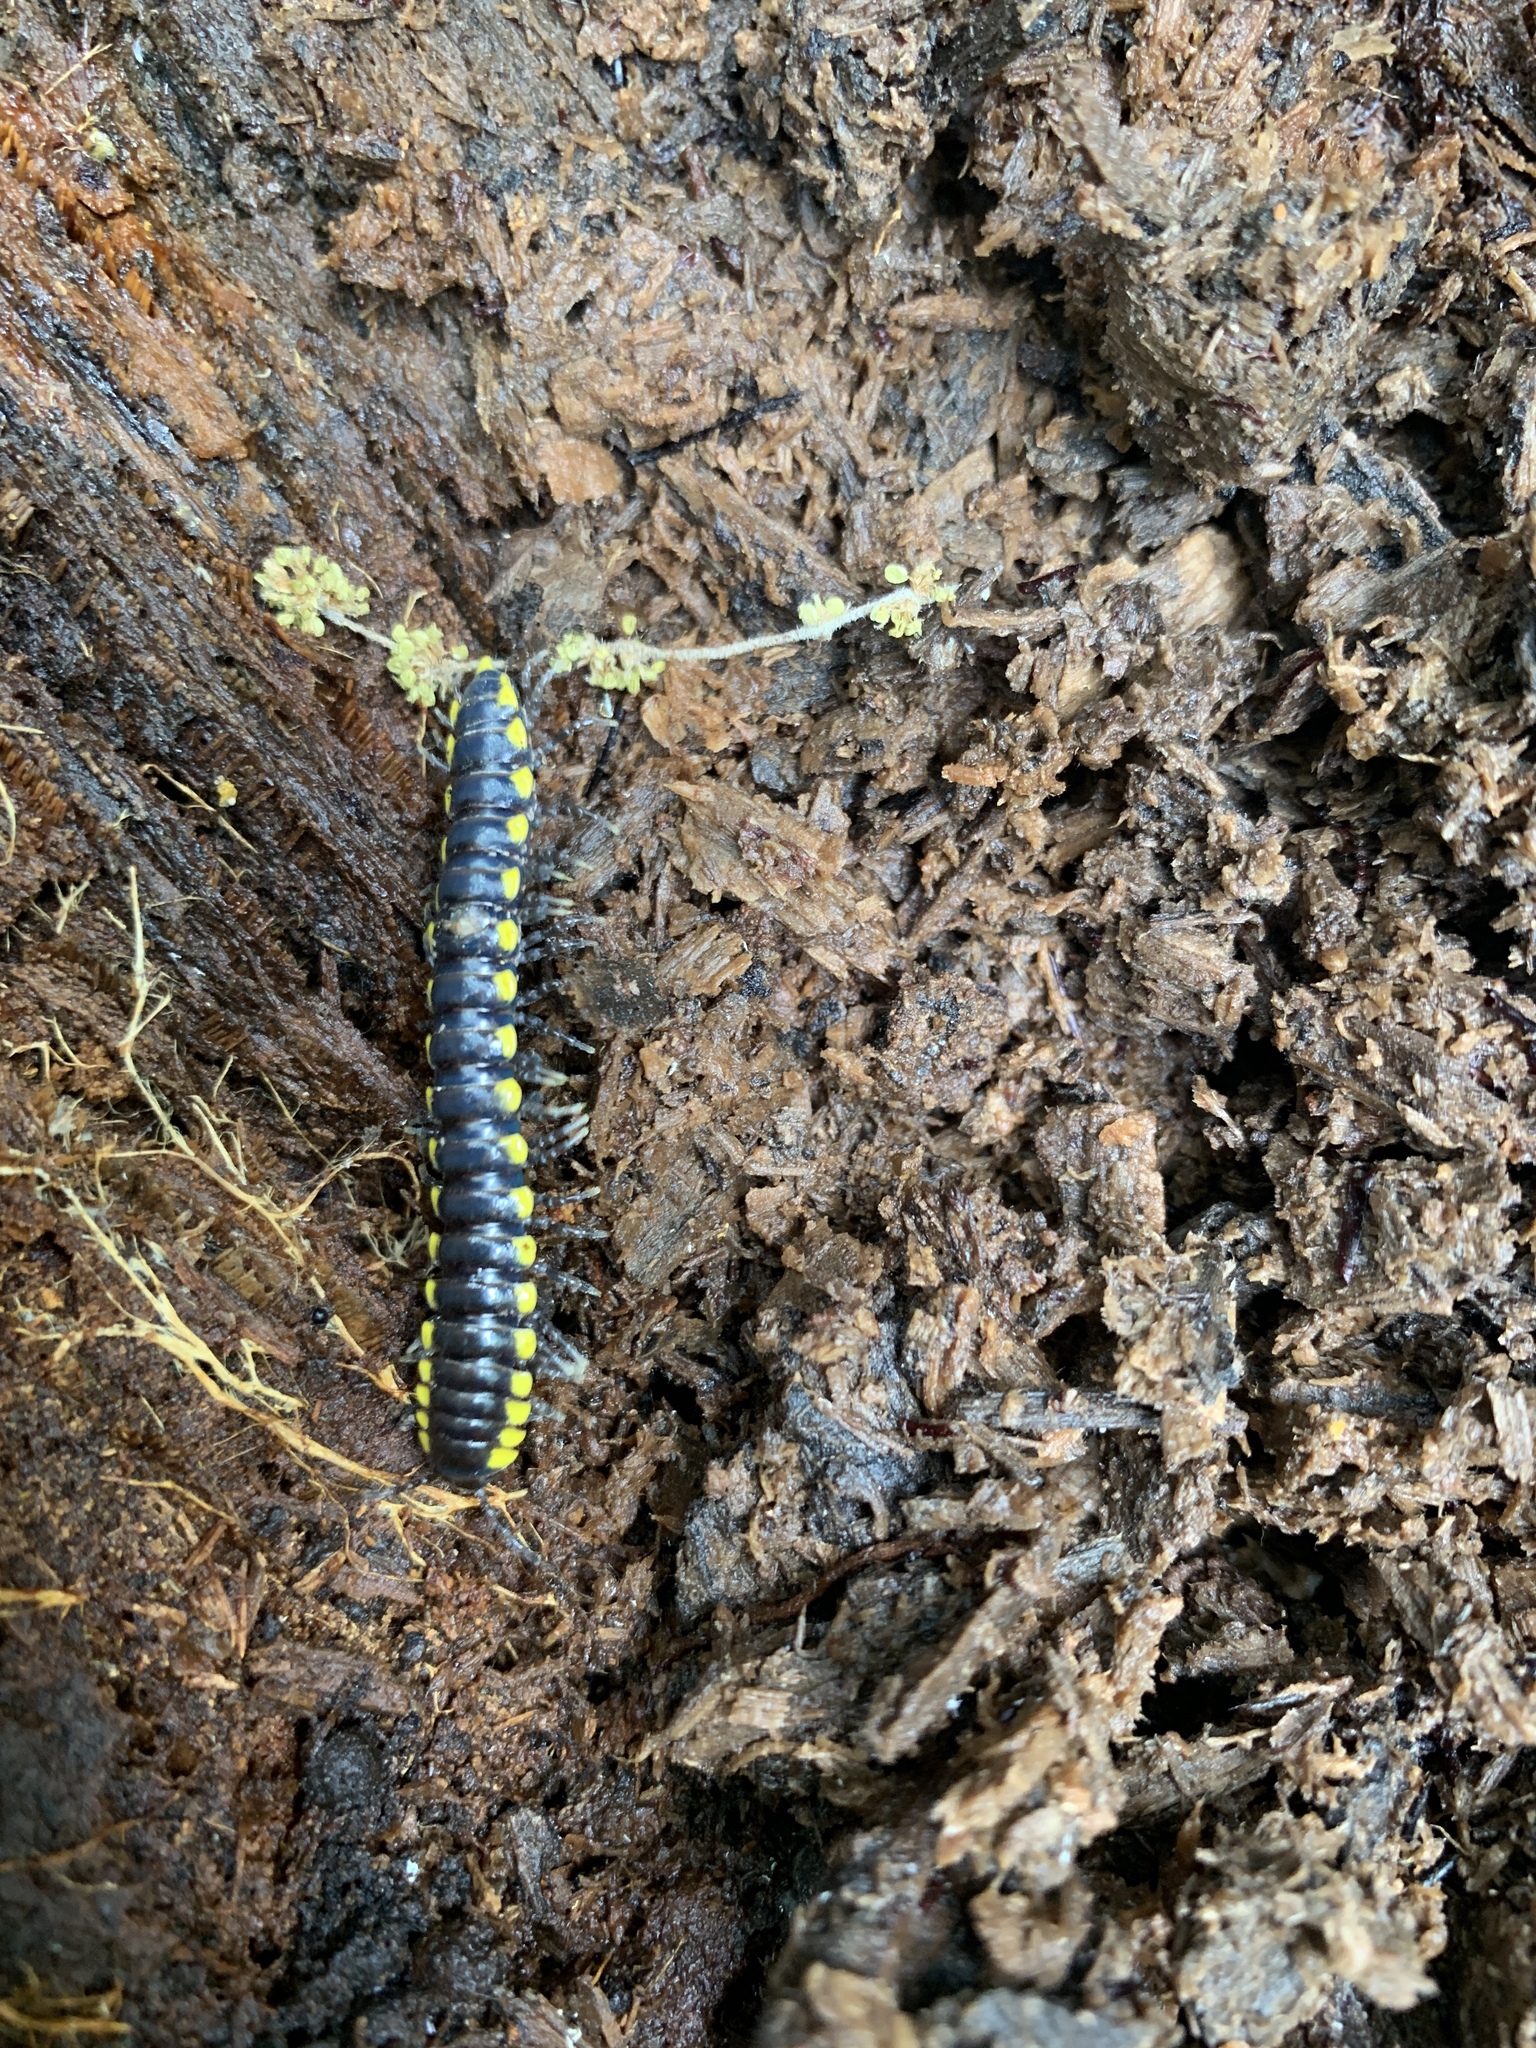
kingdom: Animalia
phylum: Arthropoda
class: Diplopoda
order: Polydesmida
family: Xystodesmidae
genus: Harpaphe
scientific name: Harpaphe haydeniana
